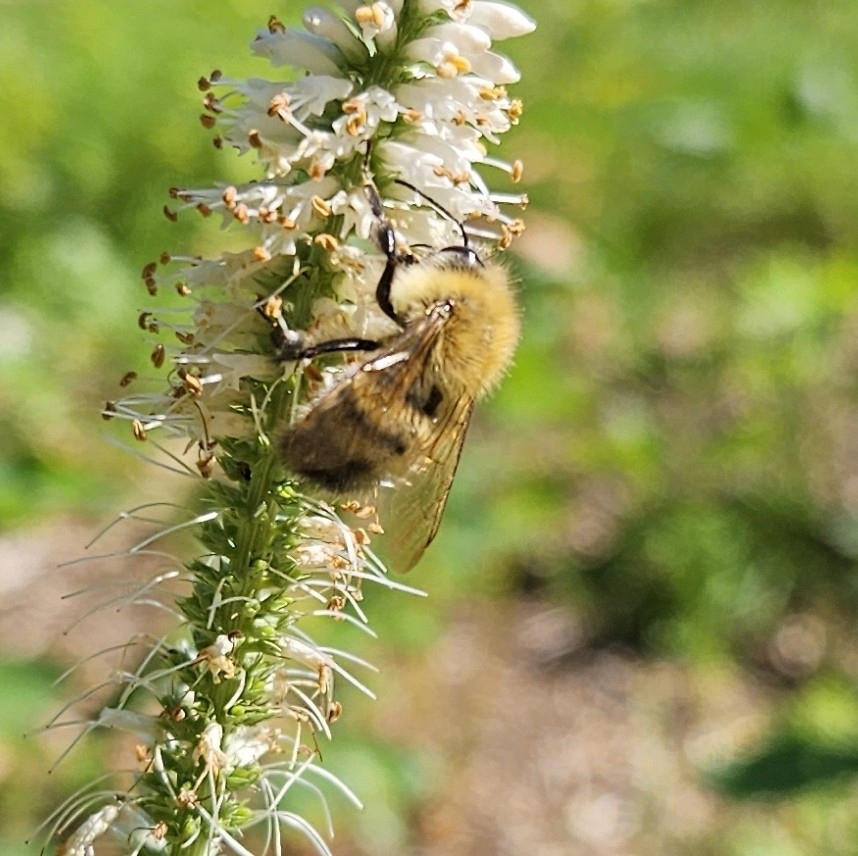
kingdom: Animalia
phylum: Arthropoda
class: Insecta
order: Hymenoptera
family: Apidae
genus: Bombus
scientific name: Bombus perplexus
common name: Confusing bumble bee
